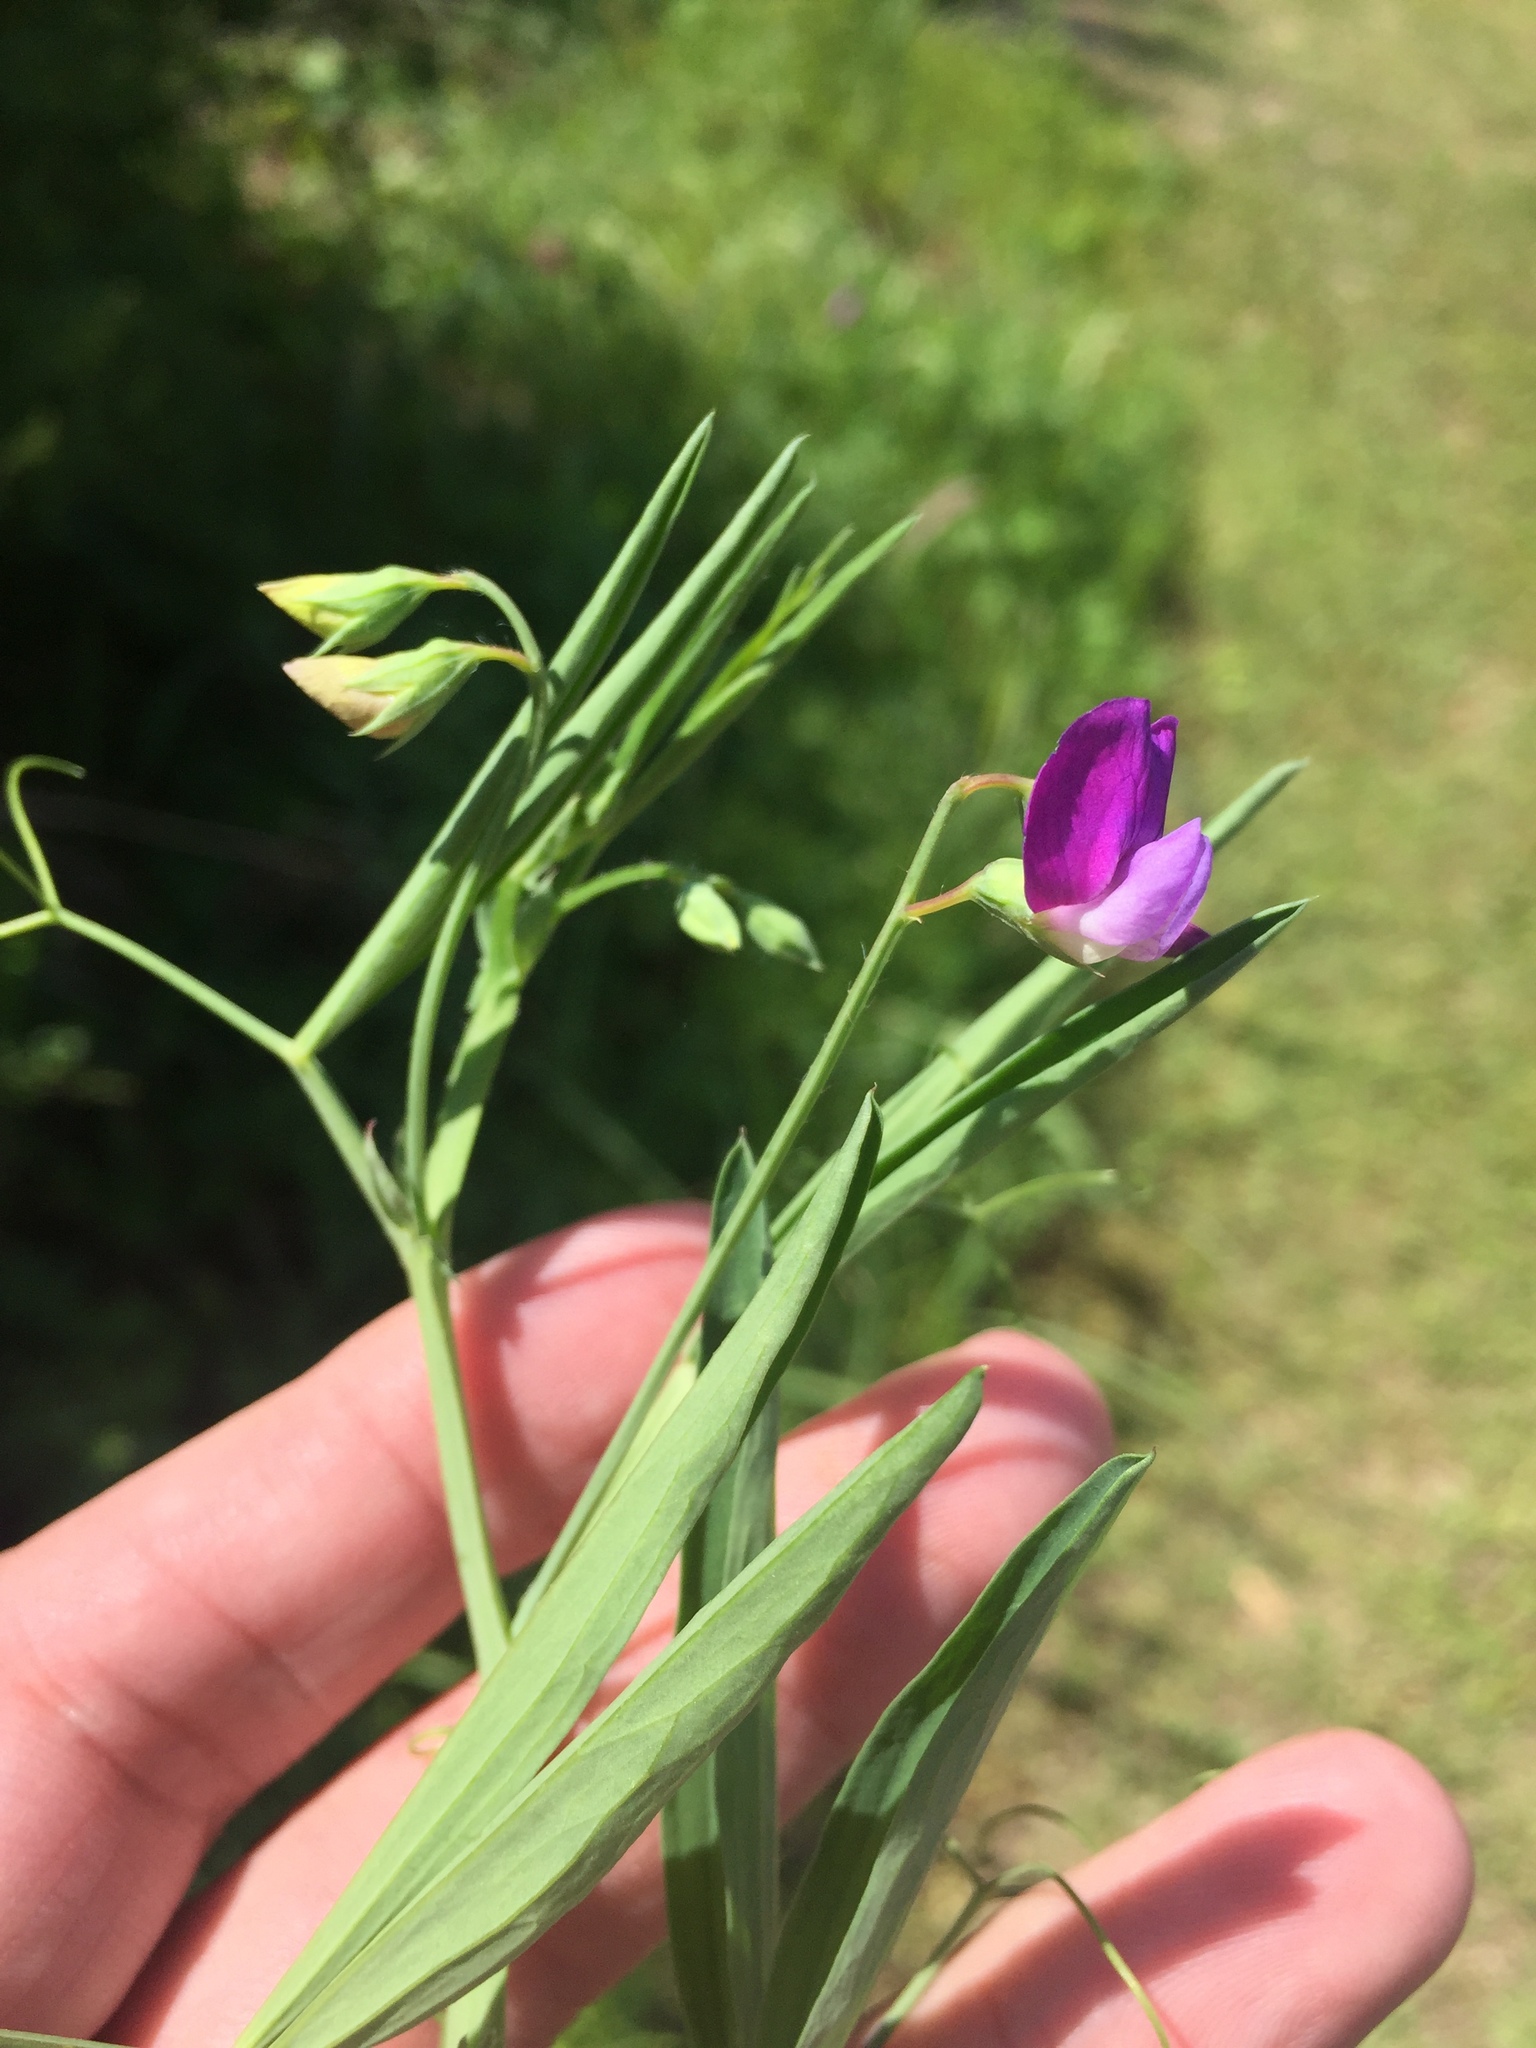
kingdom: Plantae
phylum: Tracheophyta
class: Magnoliopsida
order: Fabales
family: Fabaceae
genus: Lathyrus
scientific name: Lathyrus hirsutus
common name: Hairy vetchling
